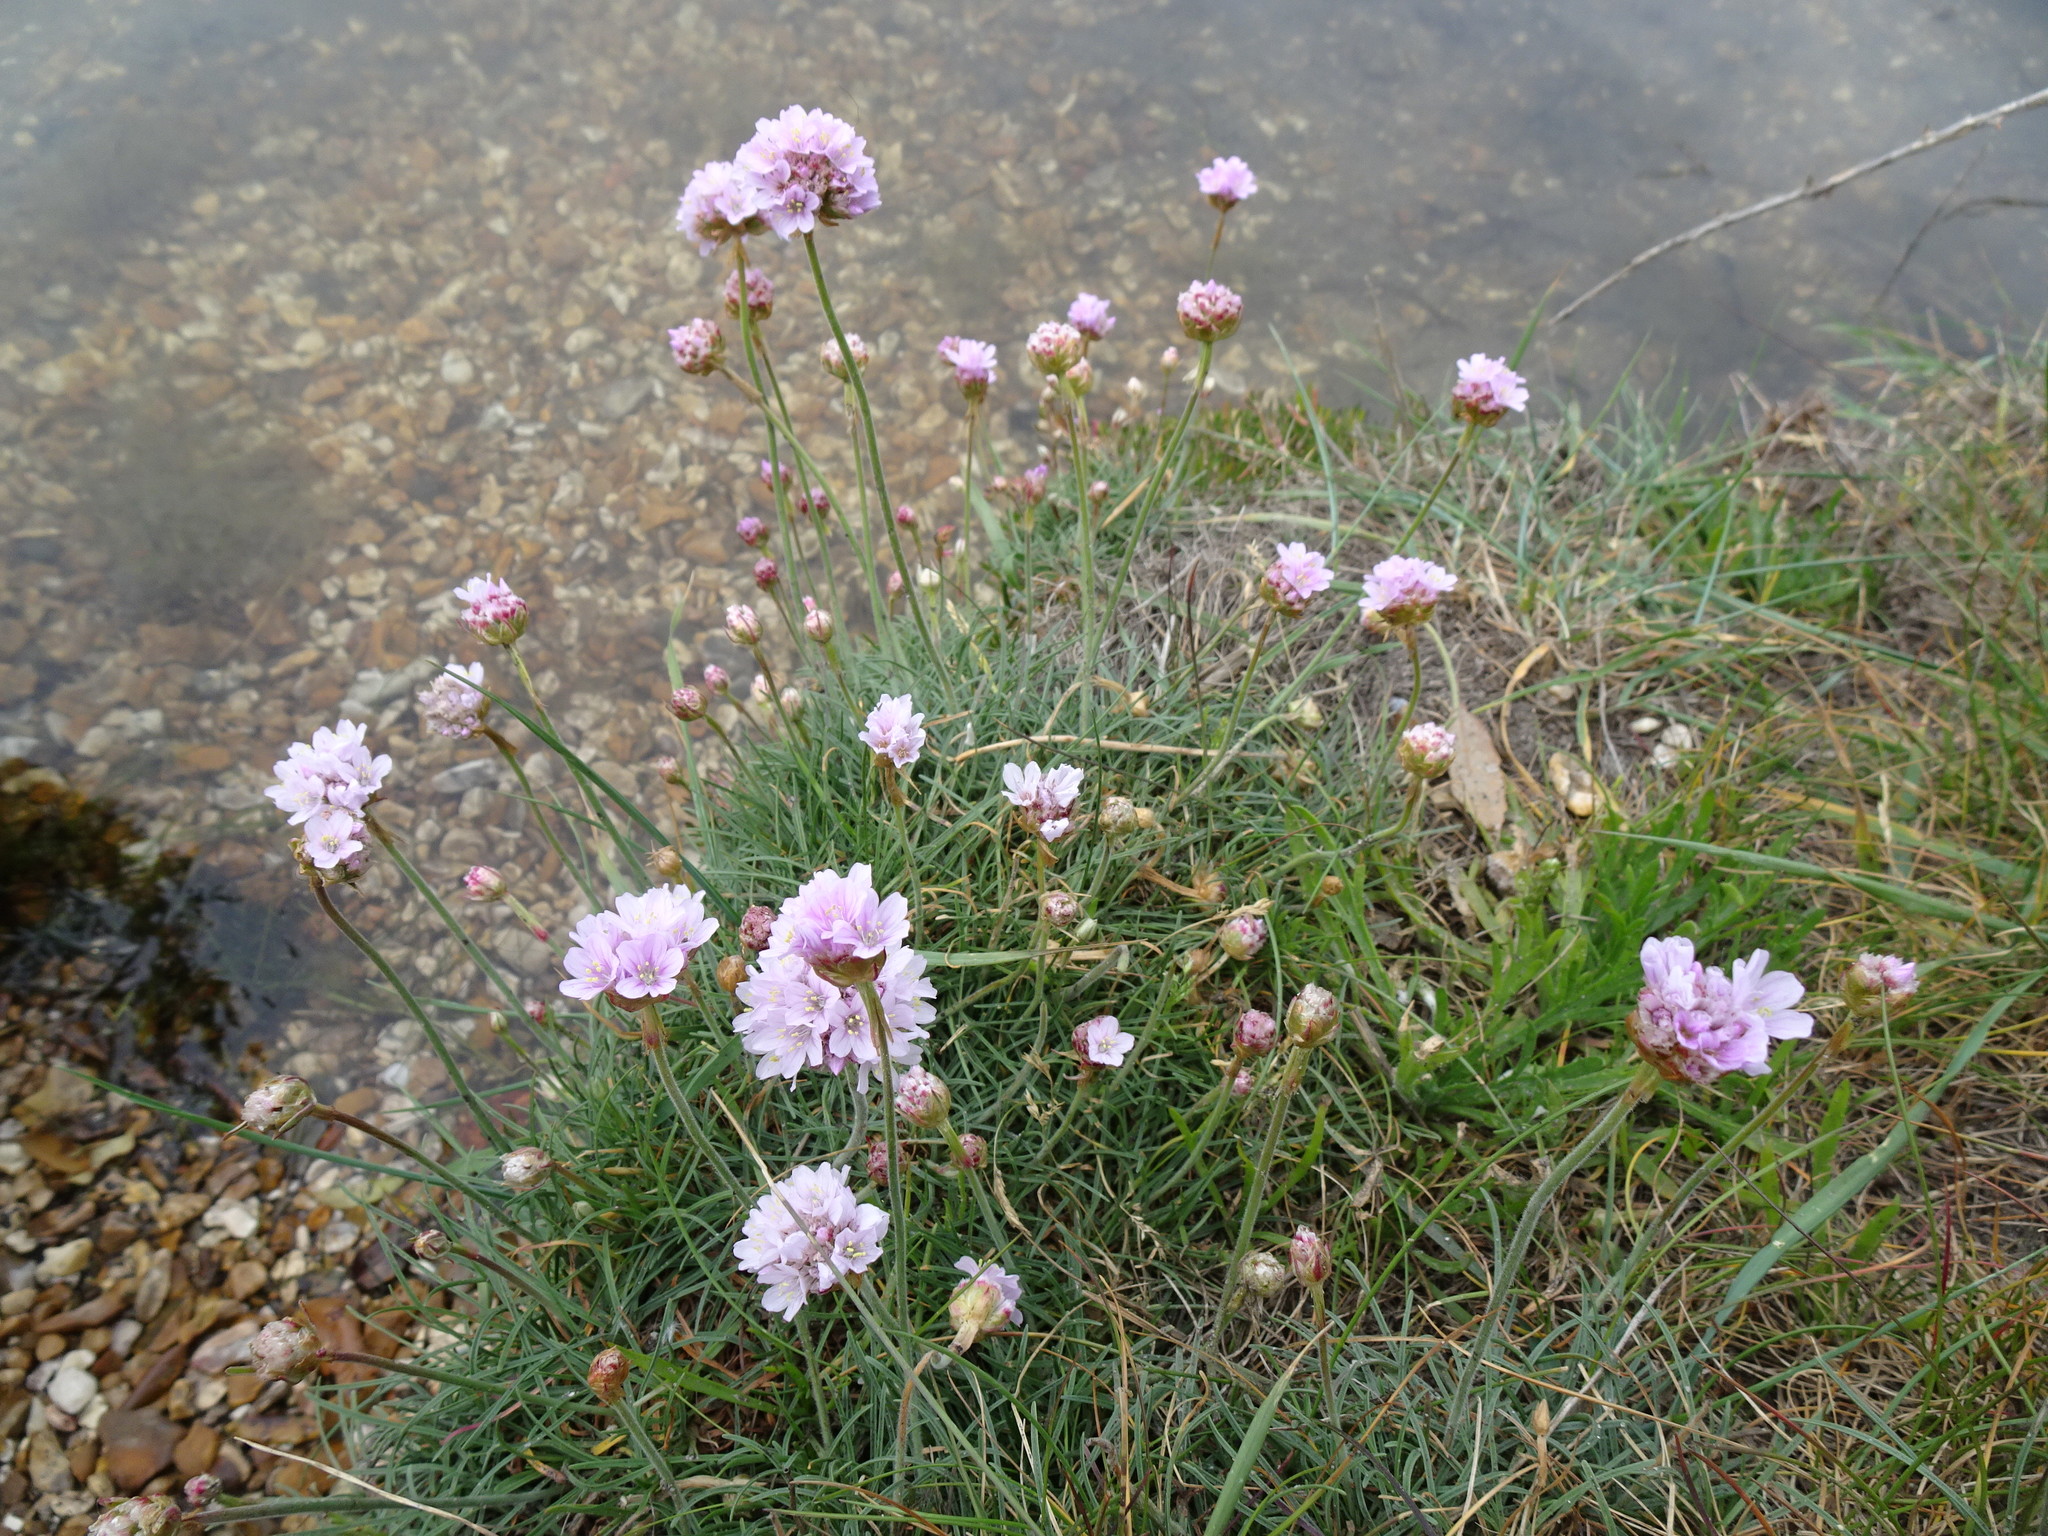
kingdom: Plantae
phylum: Tracheophyta
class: Magnoliopsida
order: Caryophyllales
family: Plumbaginaceae
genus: Armeria
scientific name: Armeria maritima
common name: Thrift
